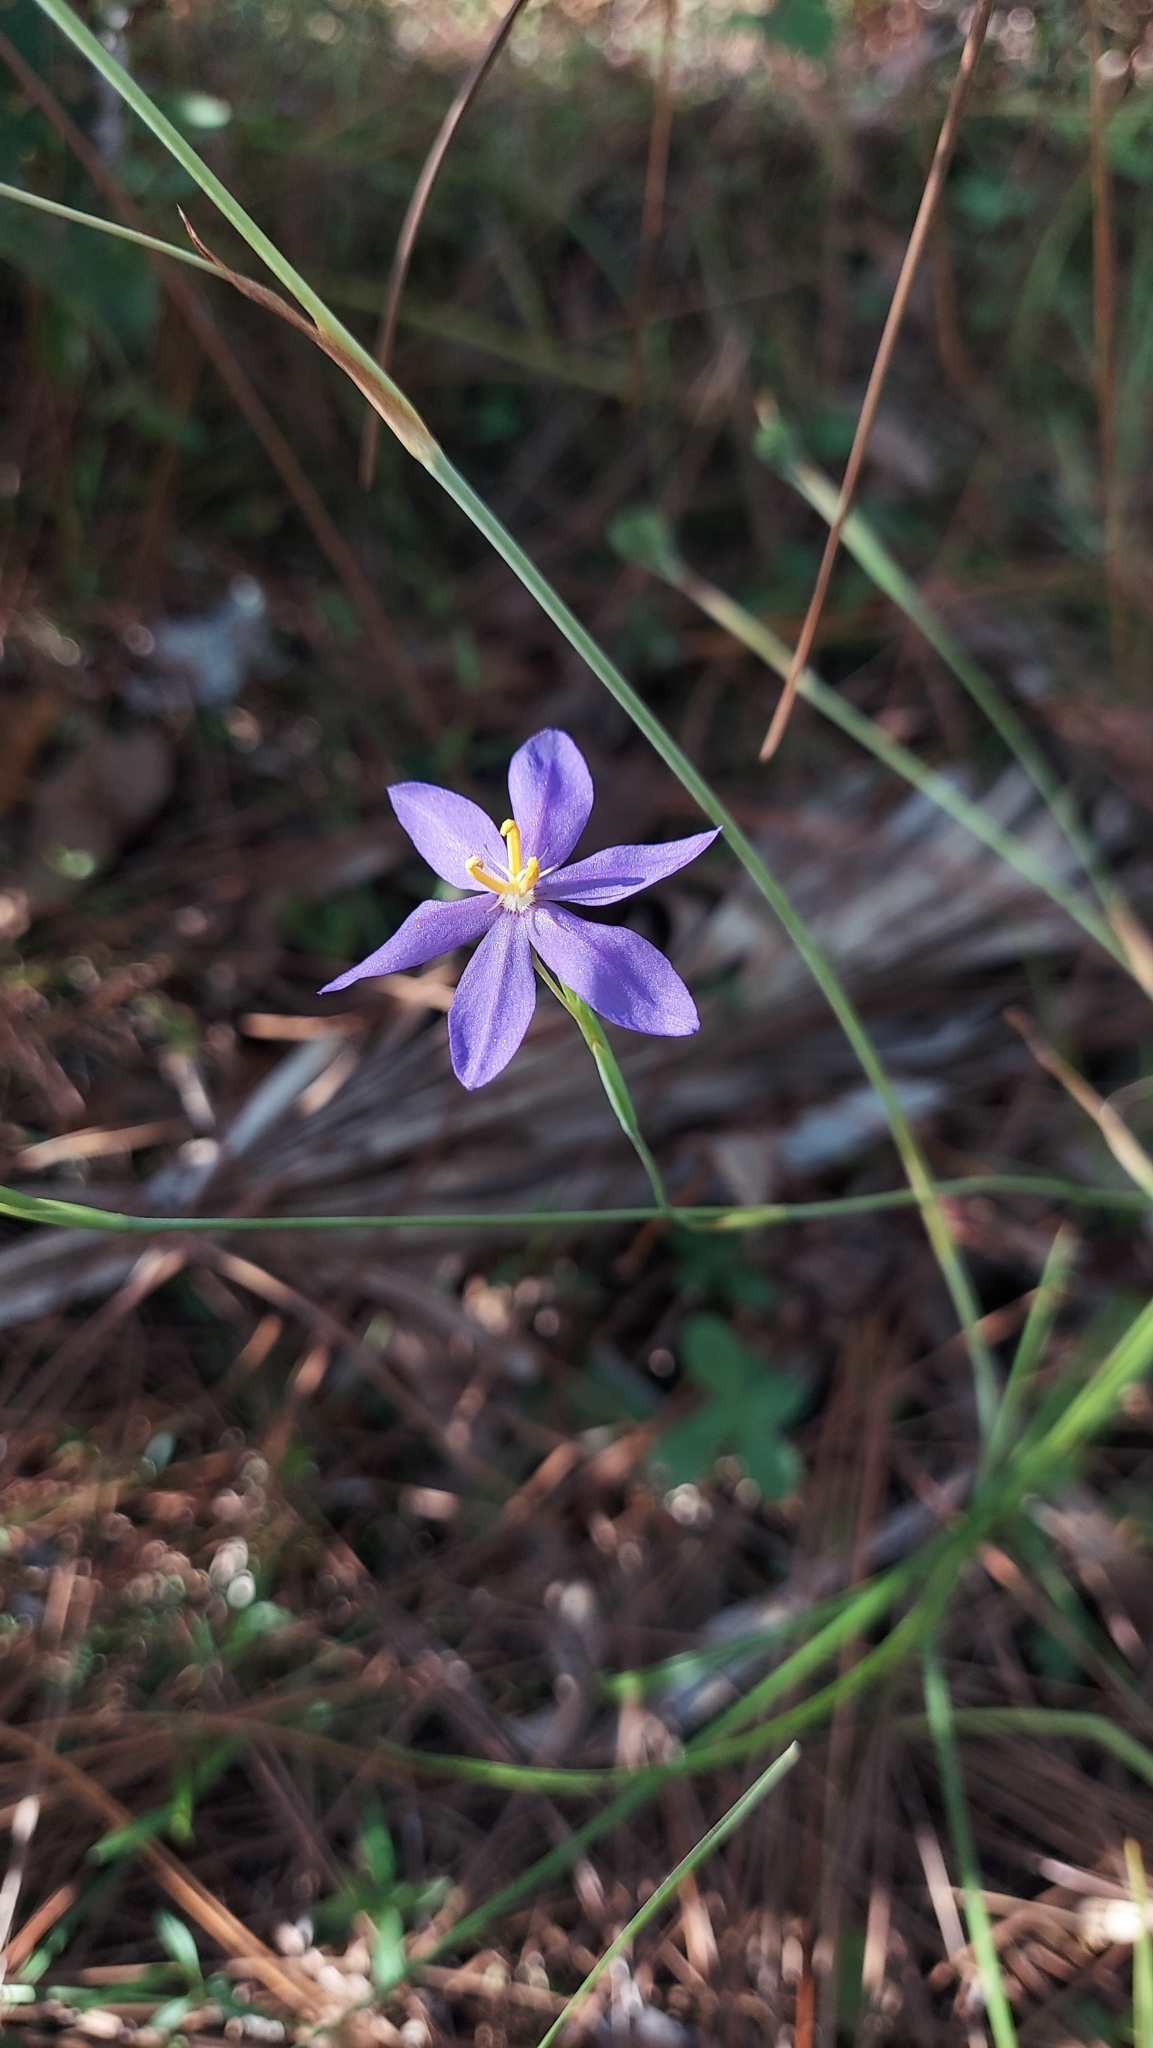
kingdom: Plantae
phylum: Tracheophyta
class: Liliopsida
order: Asparagales
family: Iridaceae
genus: Nemastylis
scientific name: Nemastylis floridana
